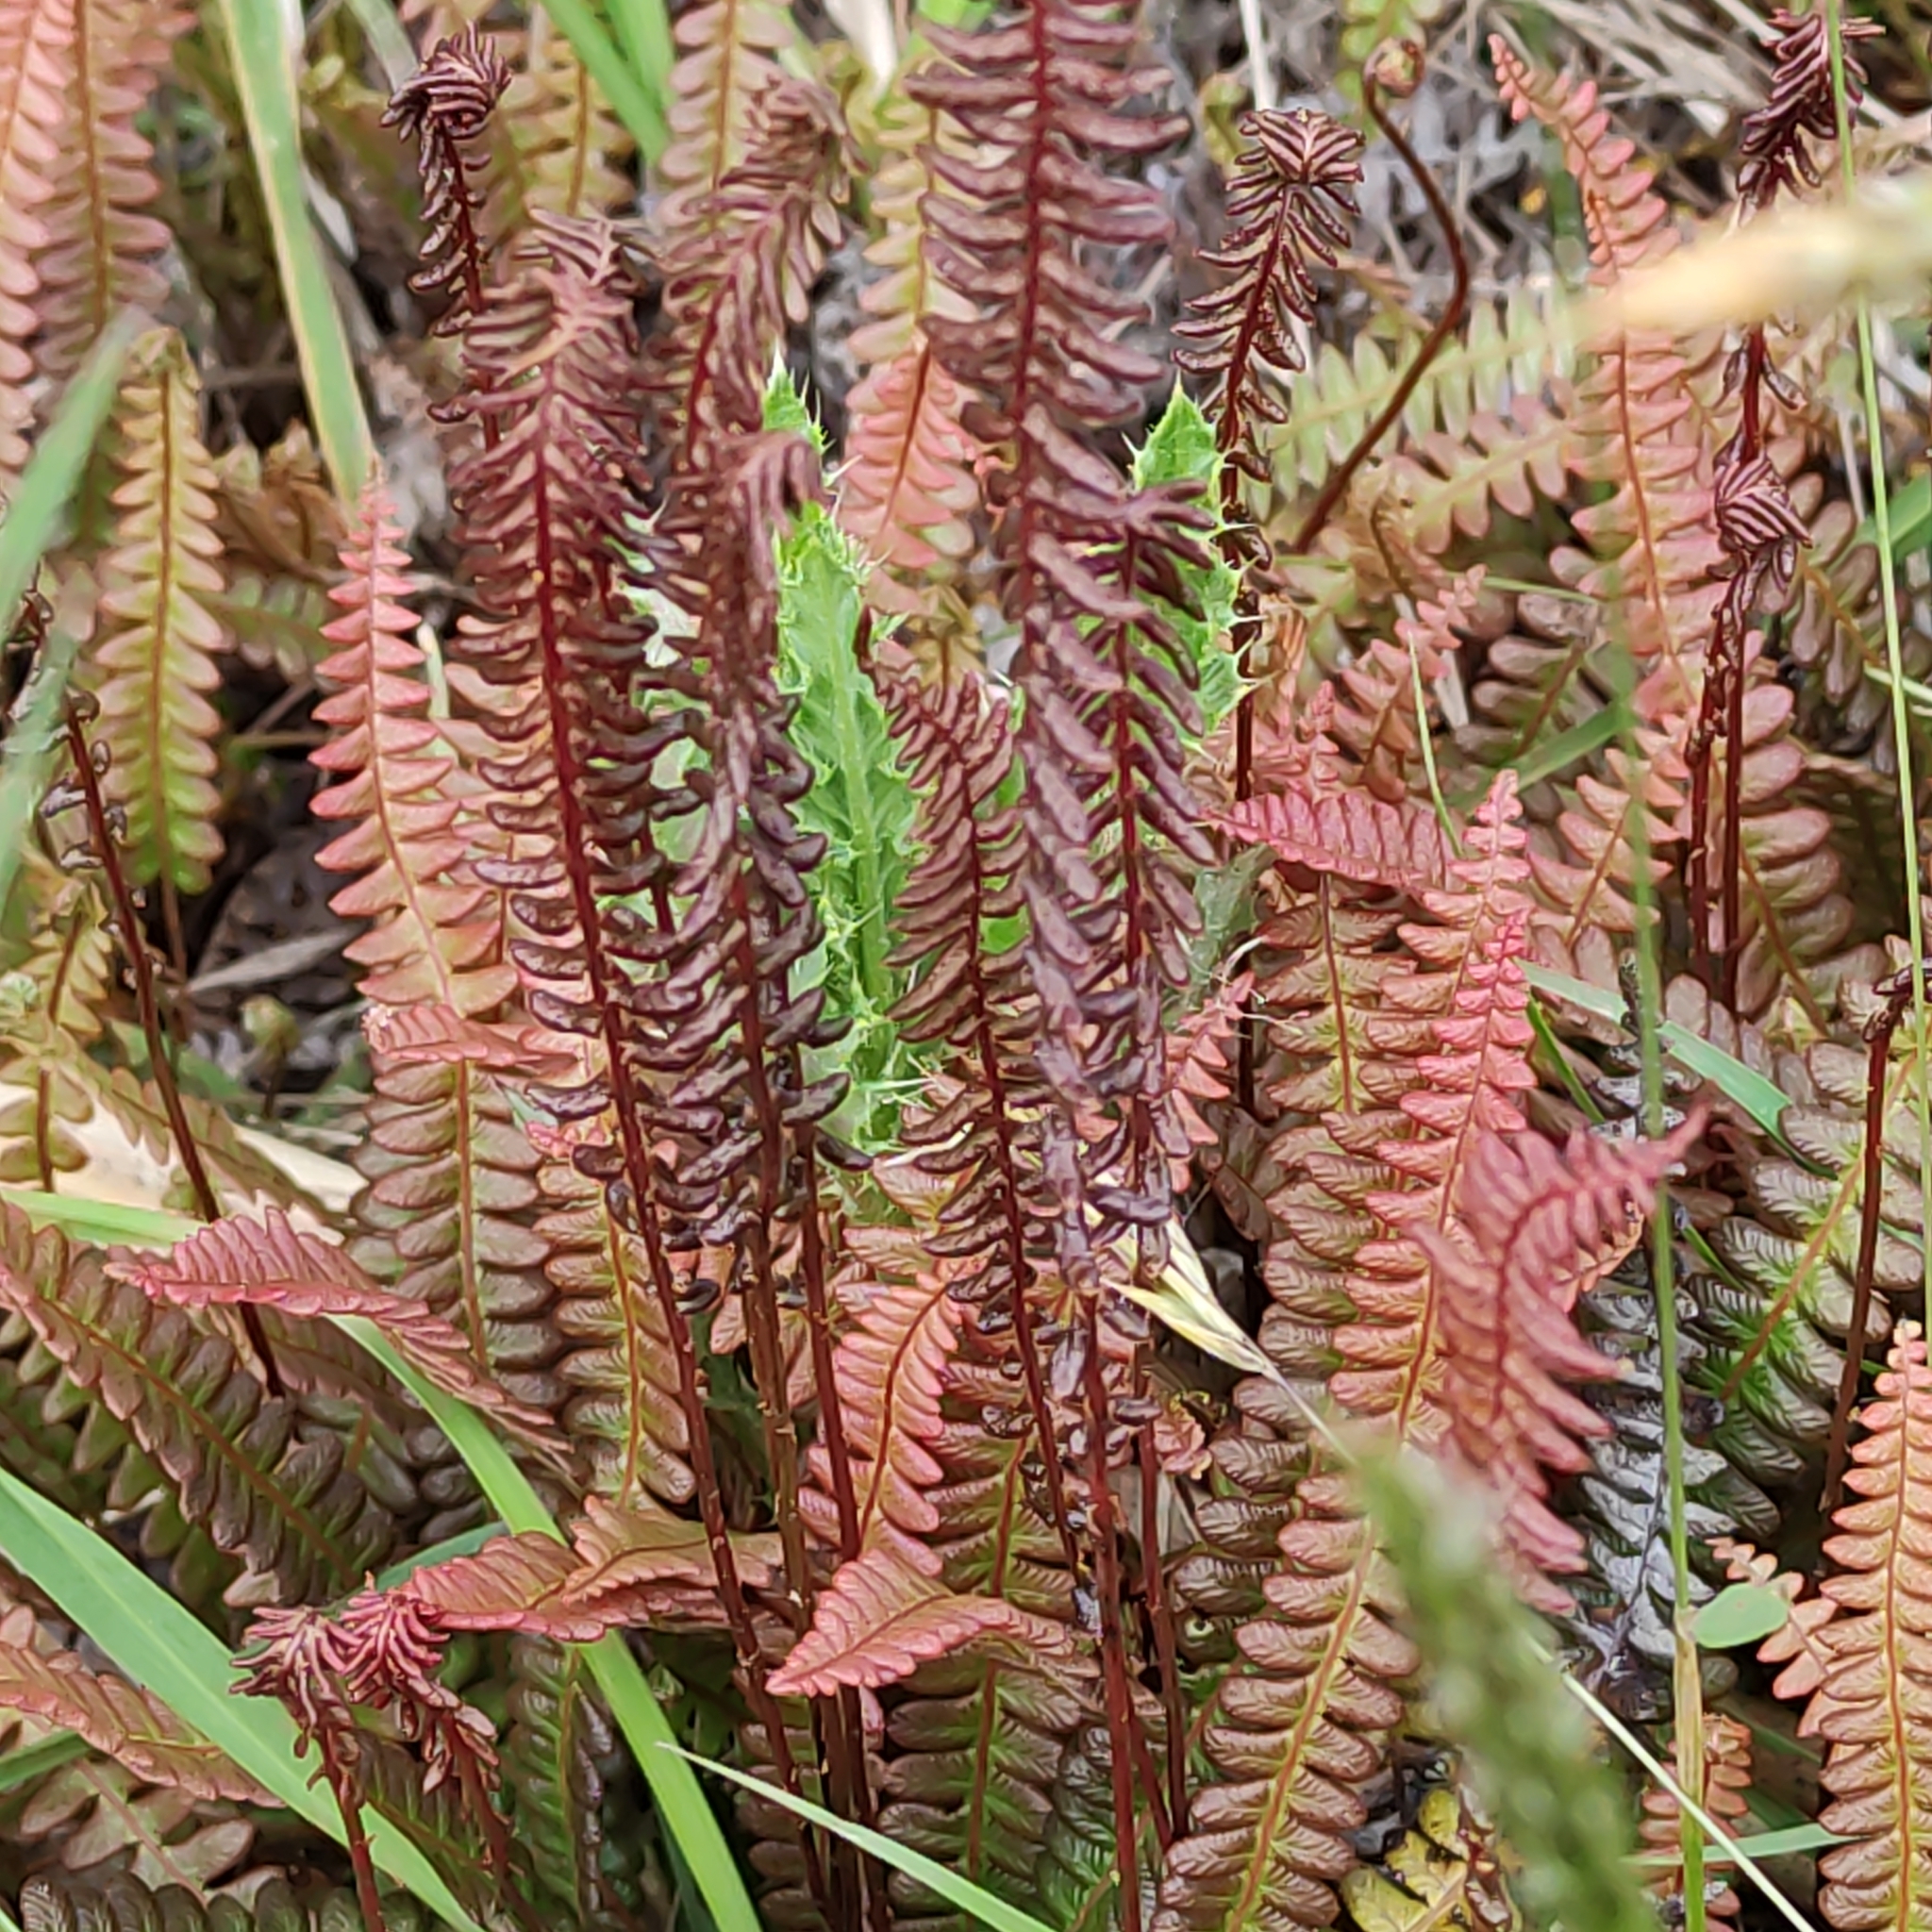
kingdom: Plantae
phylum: Tracheophyta
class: Polypodiopsida
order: Polypodiales
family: Blechnaceae
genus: Austroblechnum
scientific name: Austroblechnum penna-marina
